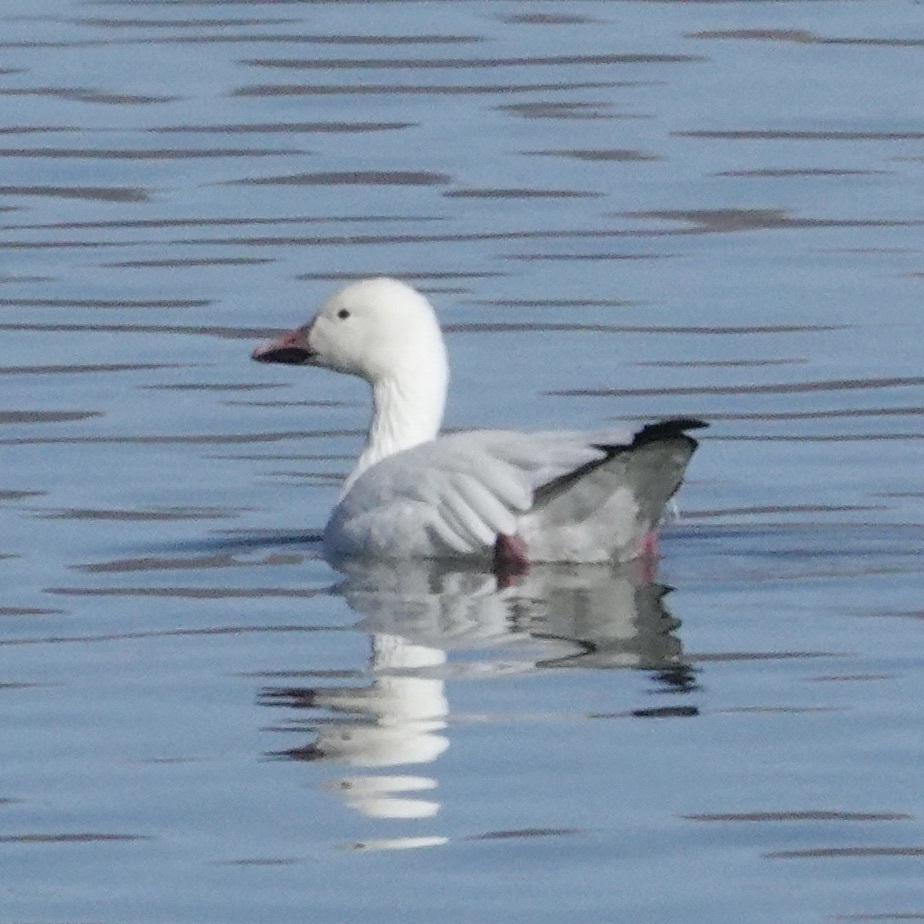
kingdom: Animalia
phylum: Chordata
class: Aves
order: Anseriformes
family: Anatidae
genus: Anser
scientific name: Anser caerulescens
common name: Snow goose
